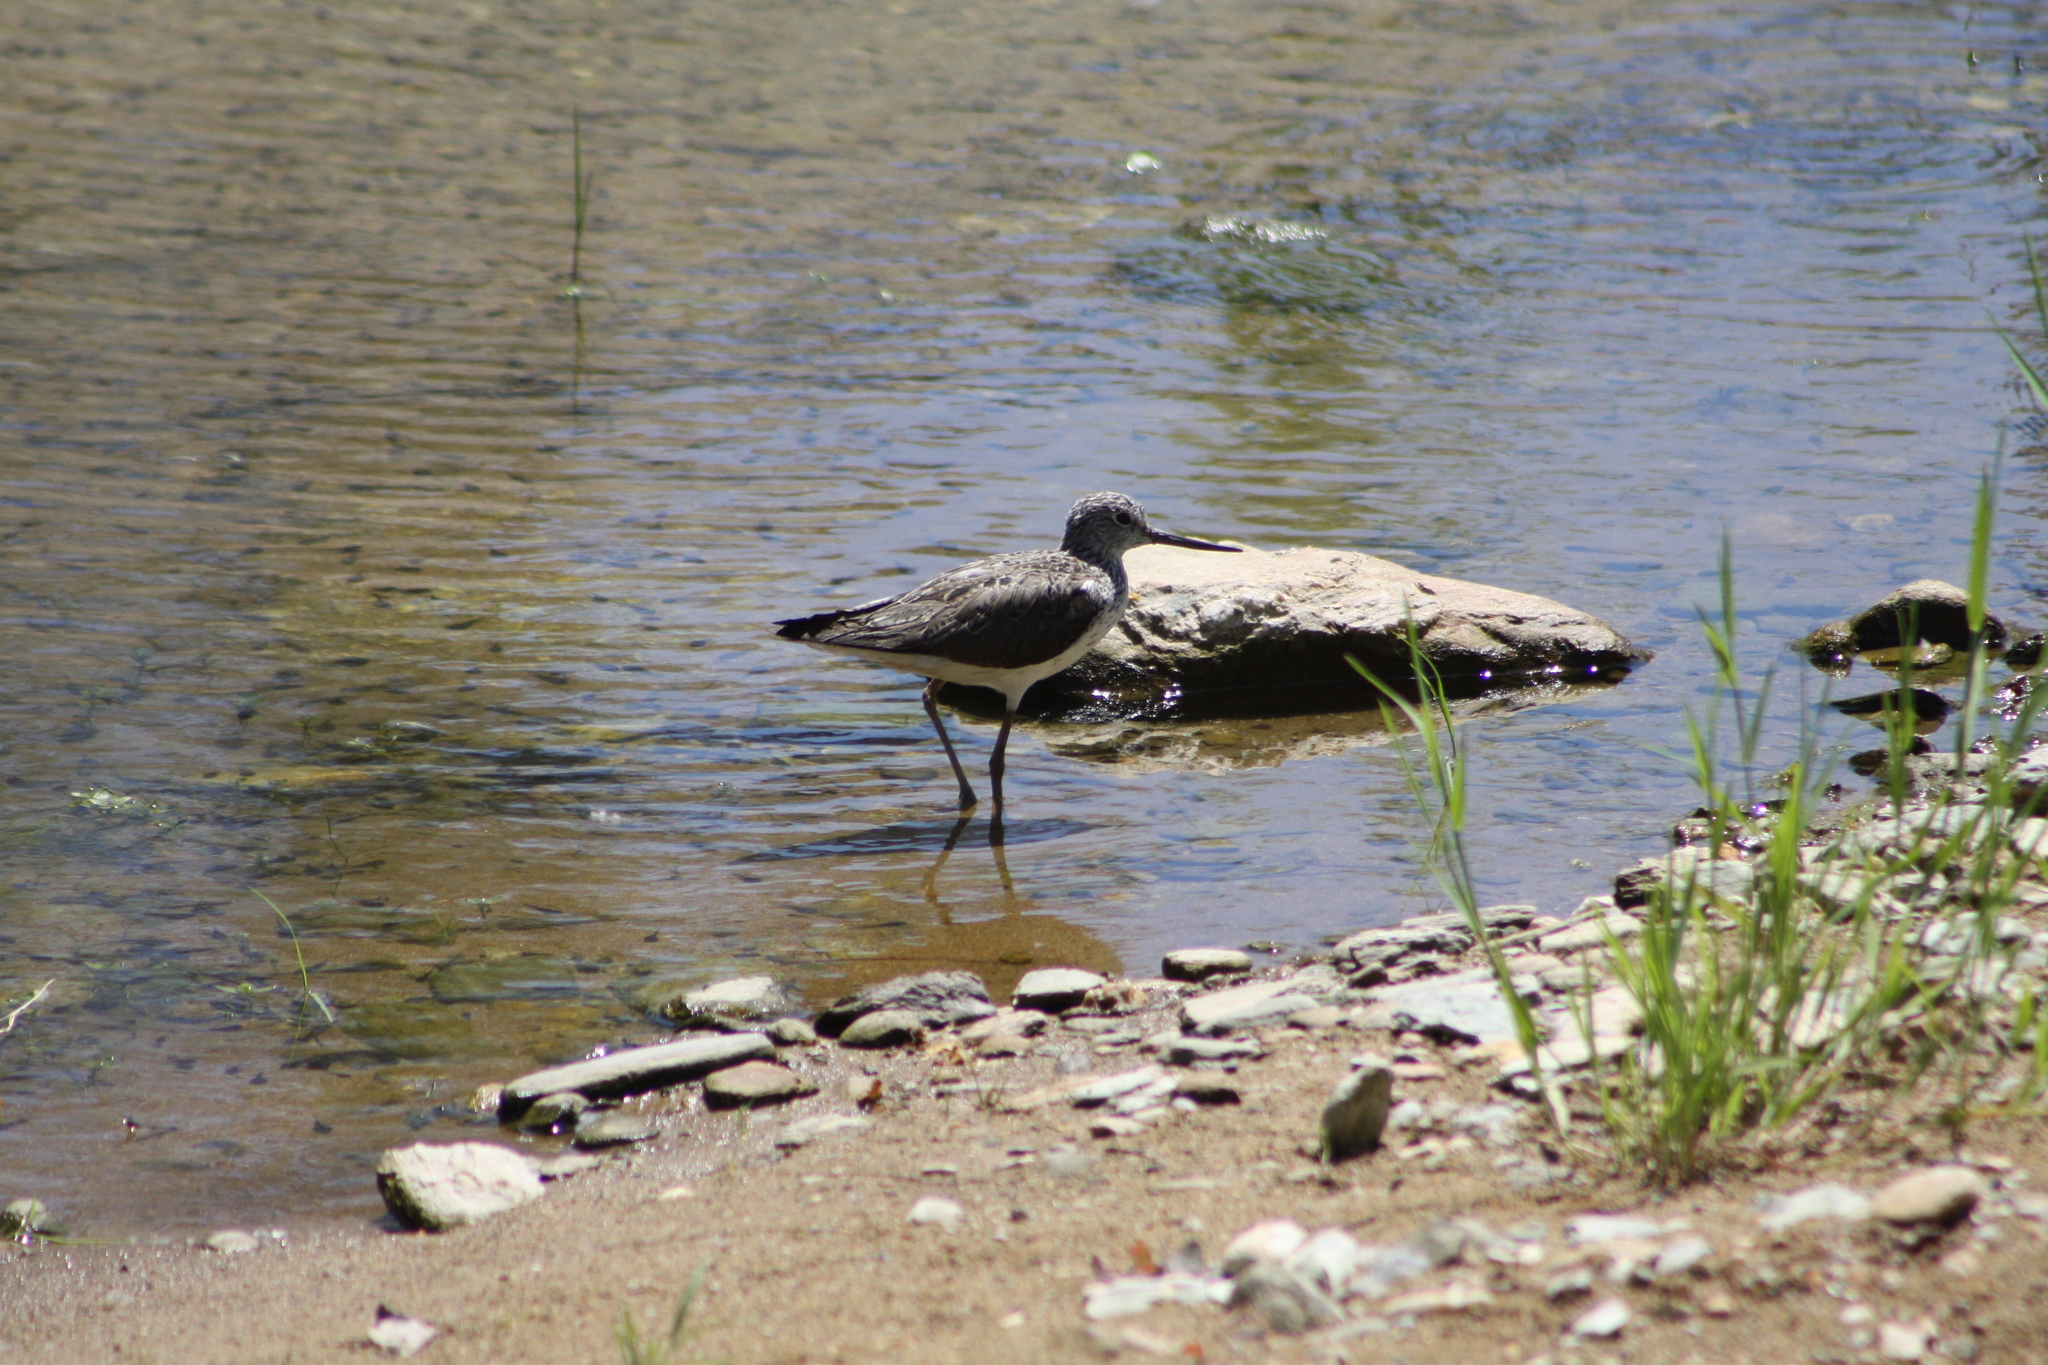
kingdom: Animalia
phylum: Chordata
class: Aves
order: Charadriiformes
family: Scolopacidae
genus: Tringa
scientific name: Tringa nebularia
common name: Common greenshank
